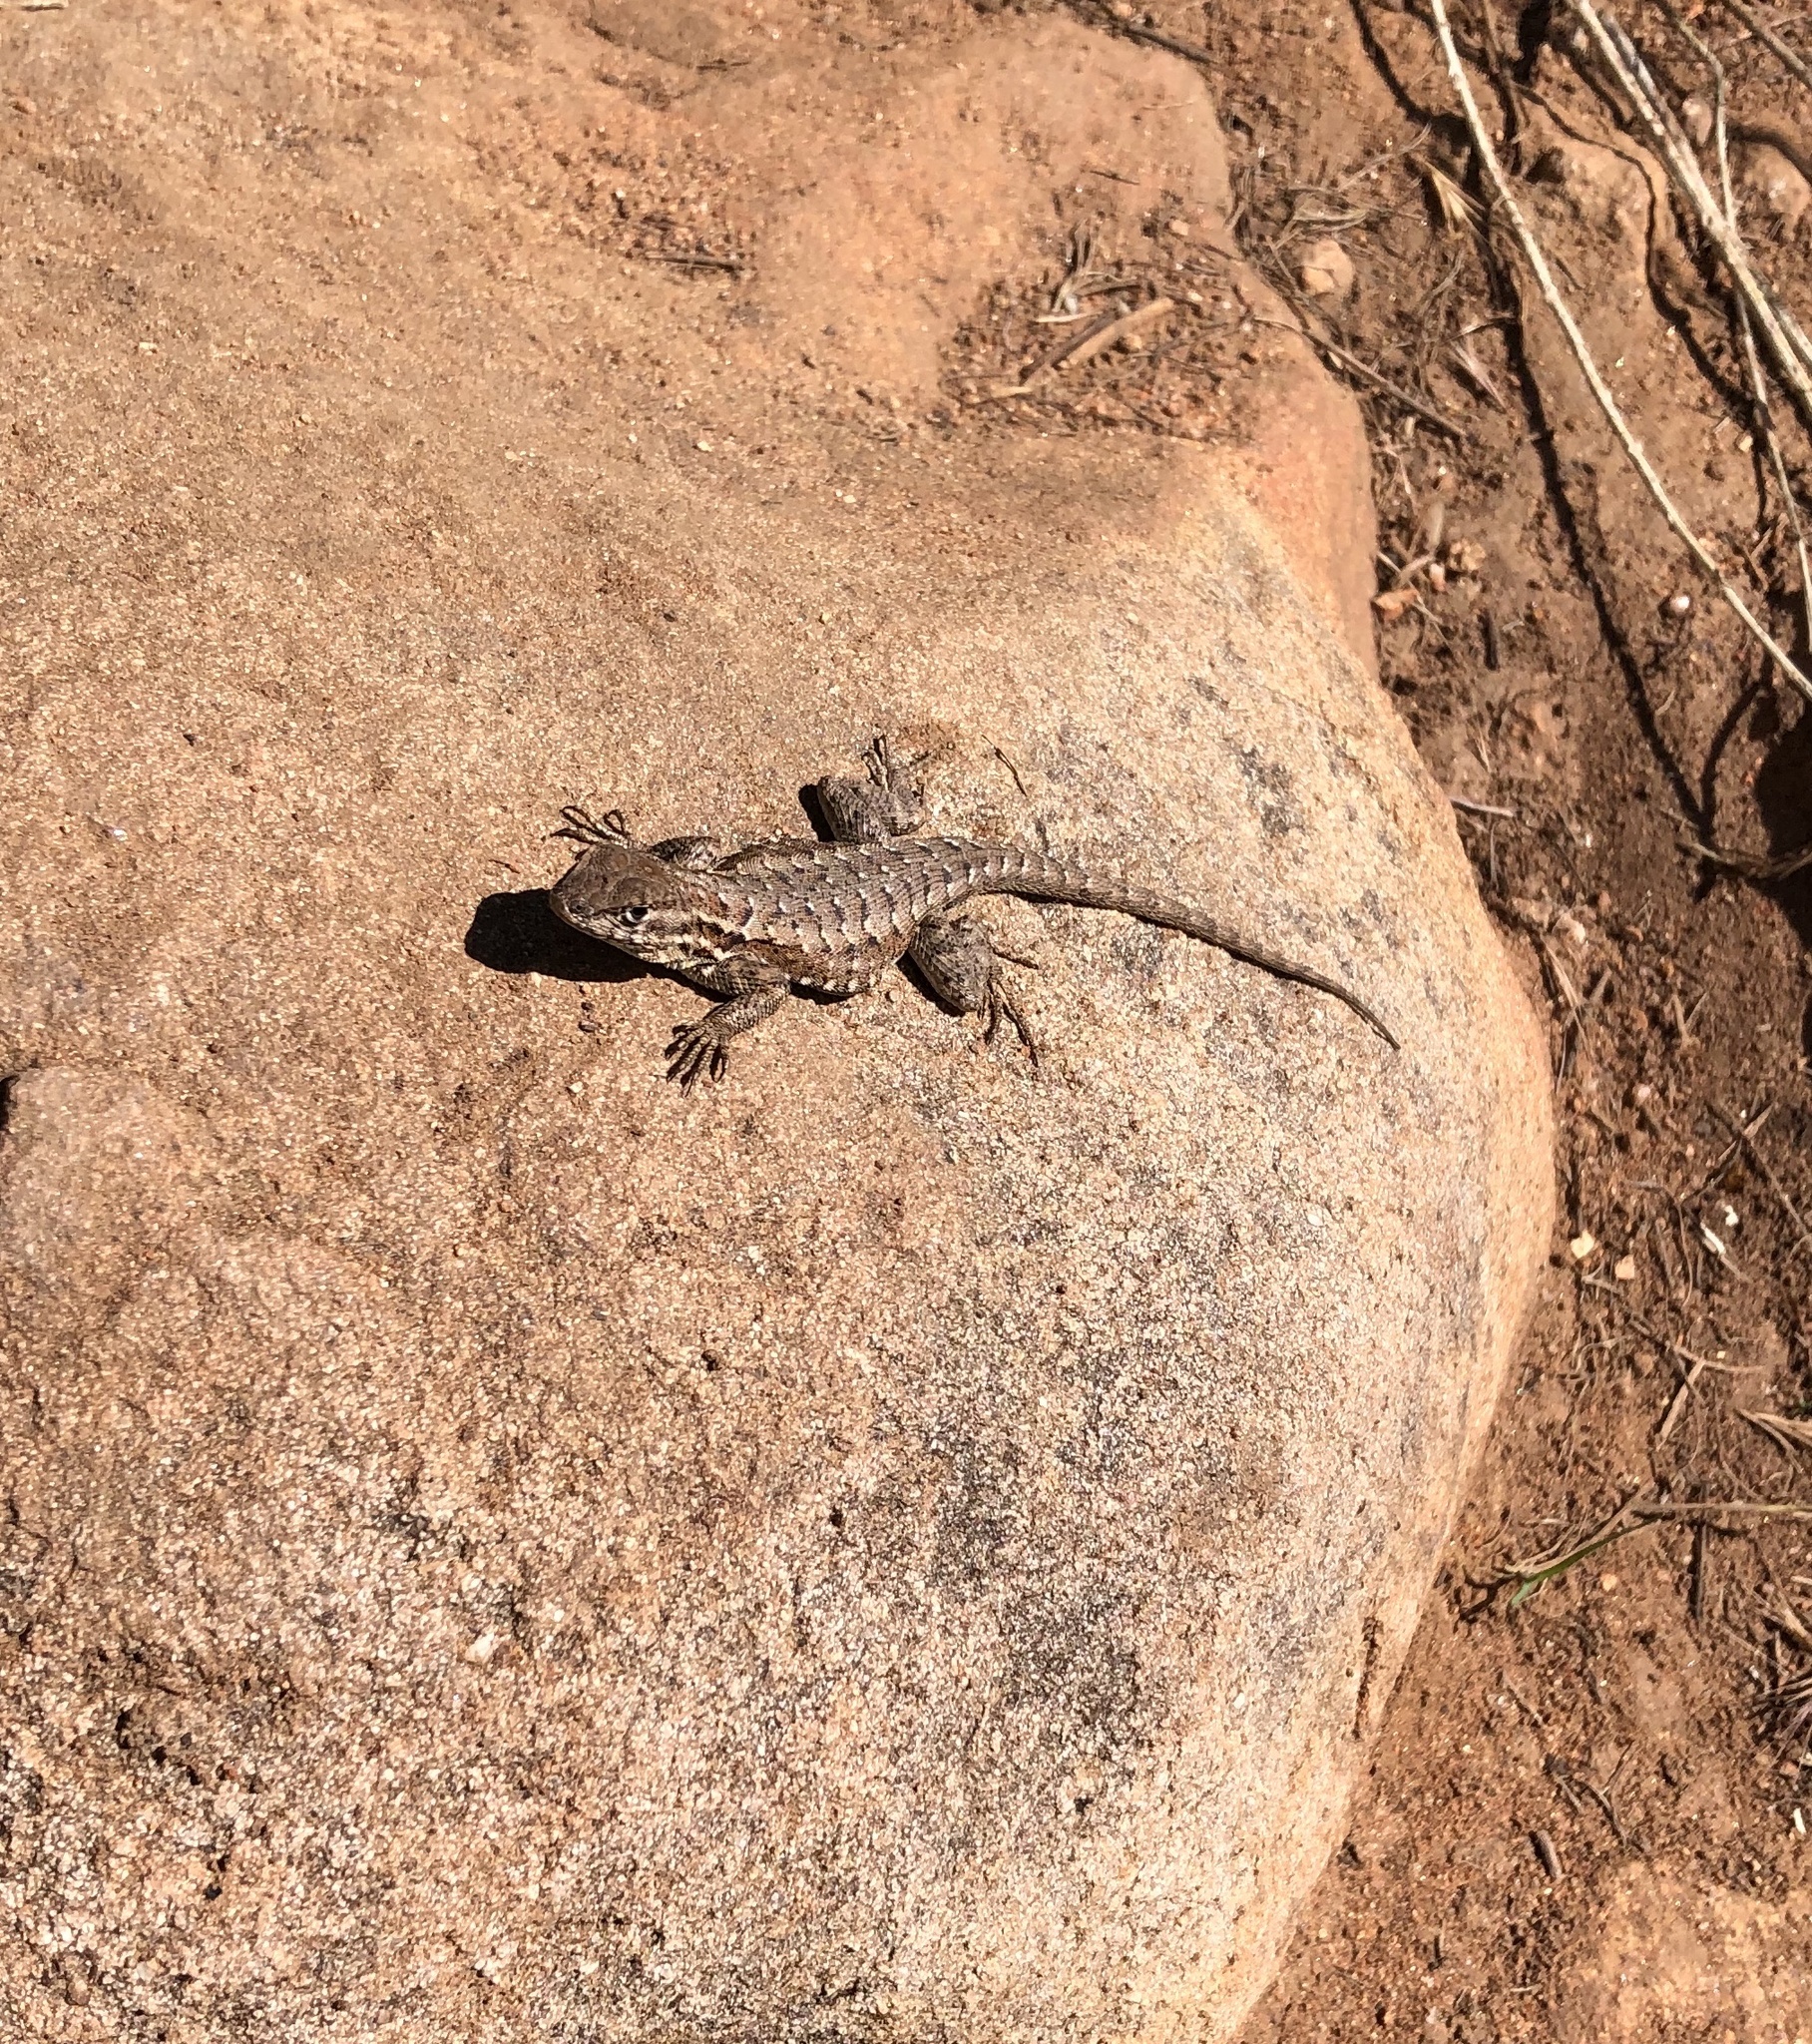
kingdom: Animalia
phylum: Chordata
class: Squamata
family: Phrynosomatidae
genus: Uta
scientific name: Uta stansburiana
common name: Side-blotched lizard
